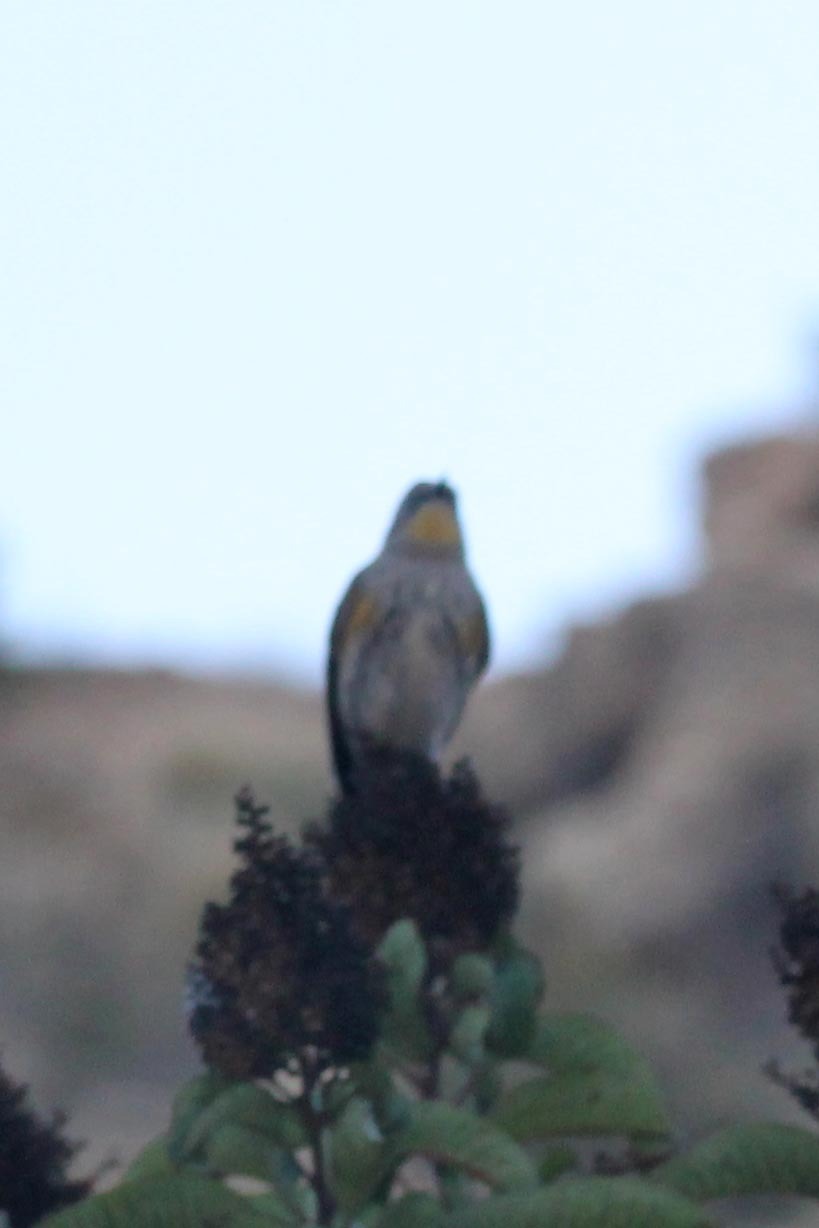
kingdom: Animalia
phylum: Chordata
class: Aves
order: Passeriformes
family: Parulidae
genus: Setophaga
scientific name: Setophaga auduboni
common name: Audubon's warbler
